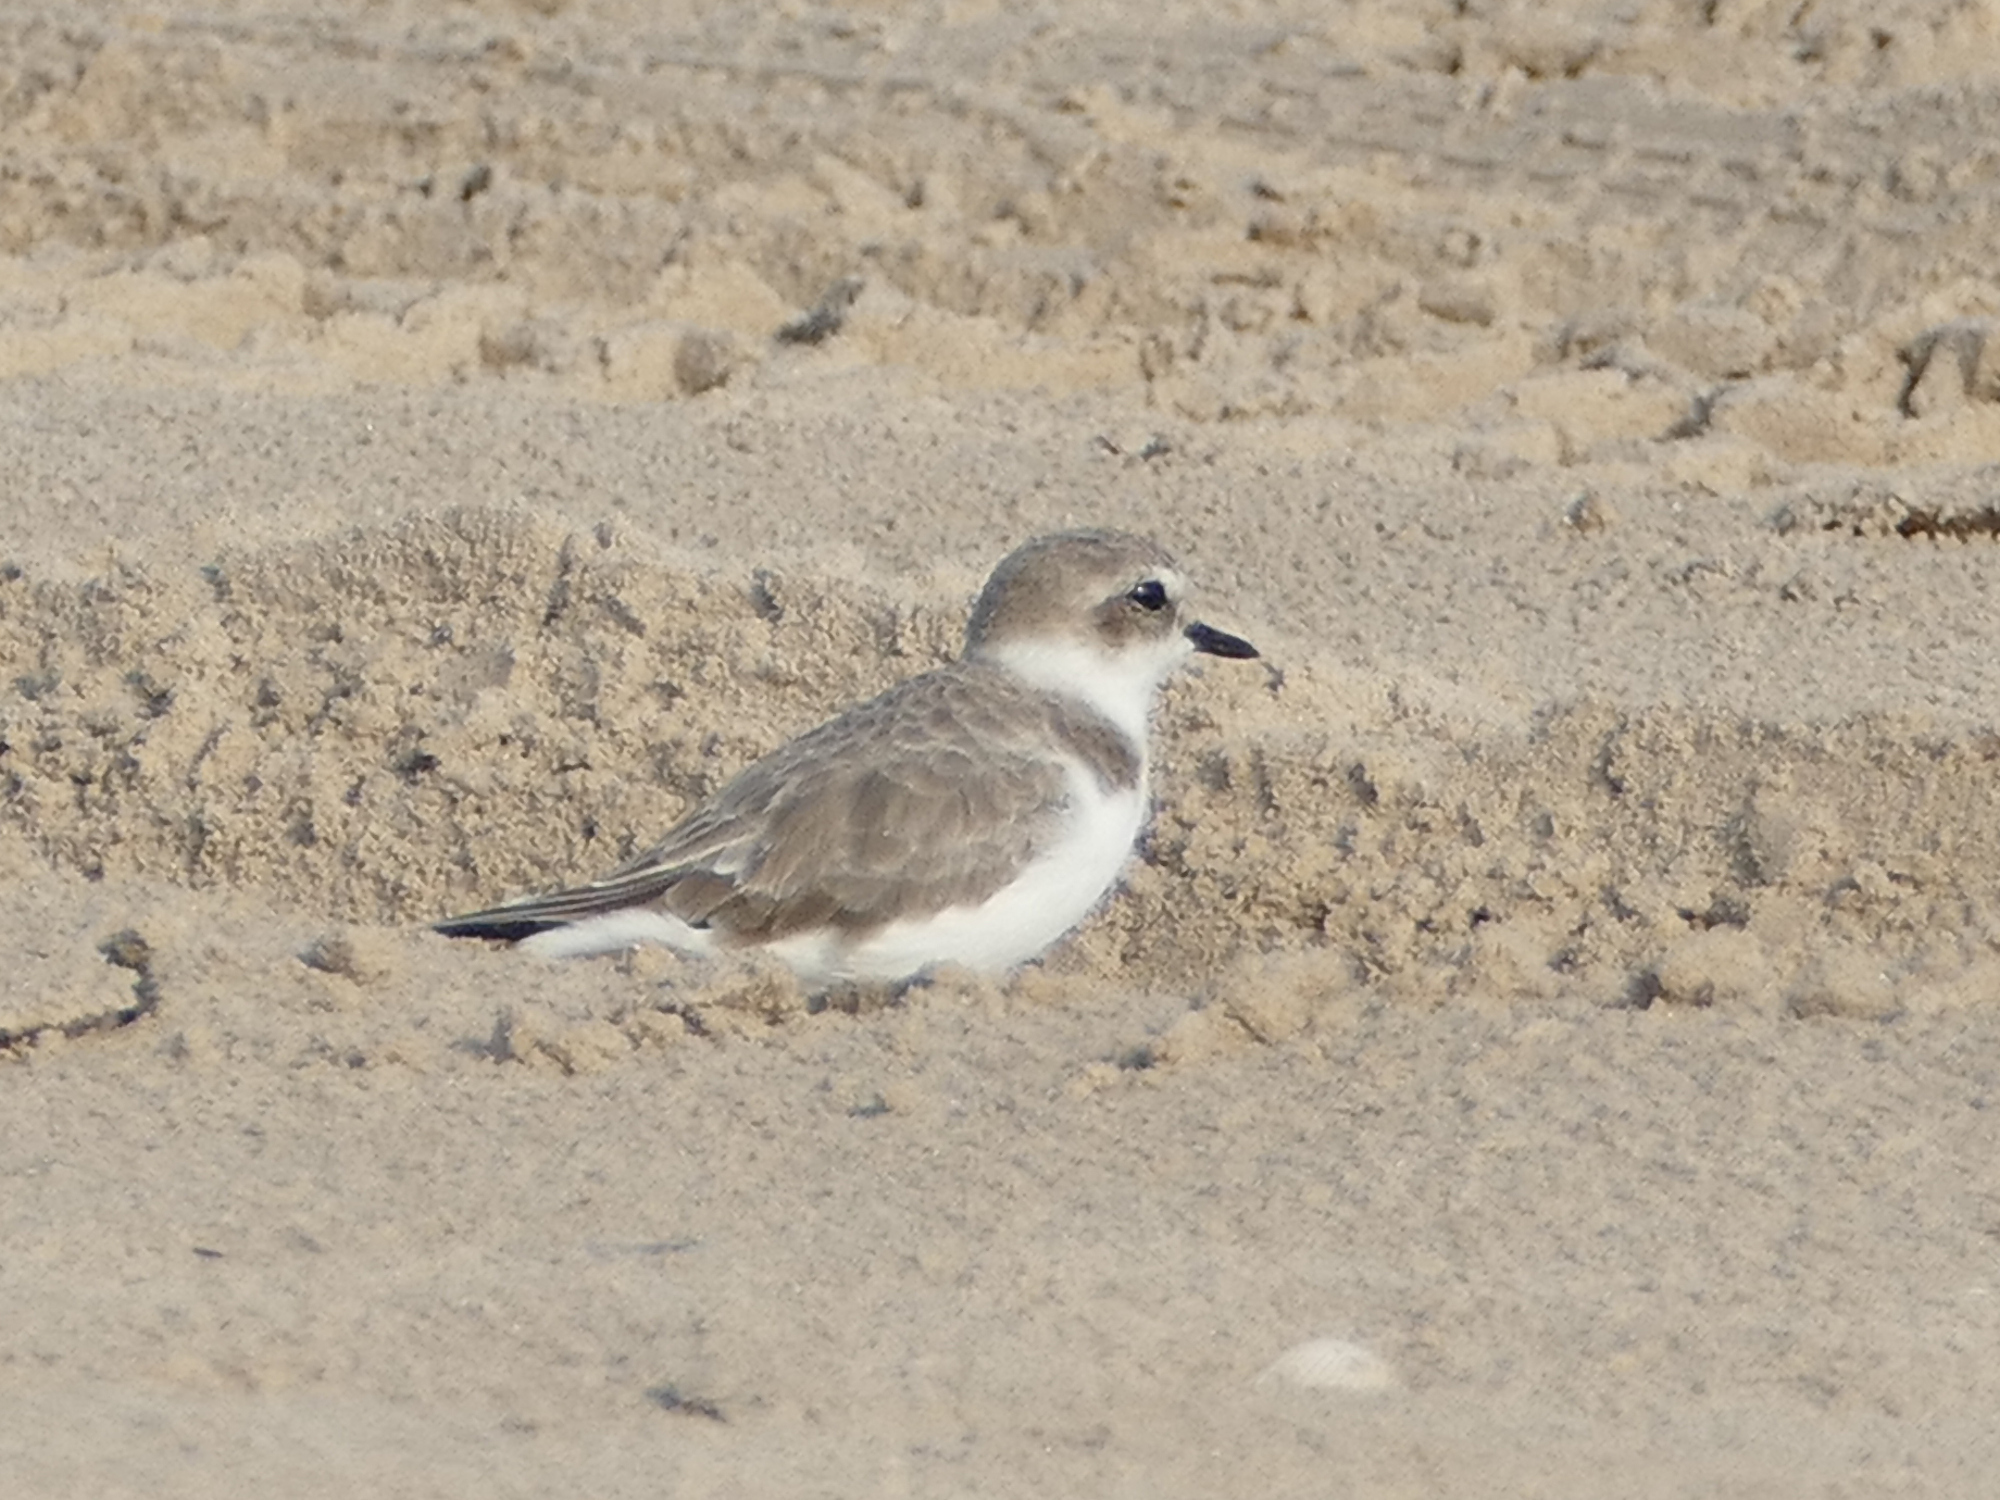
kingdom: Animalia
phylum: Chordata
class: Aves
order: Charadriiformes
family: Charadriidae
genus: Anarhynchus
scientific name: Anarhynchus
